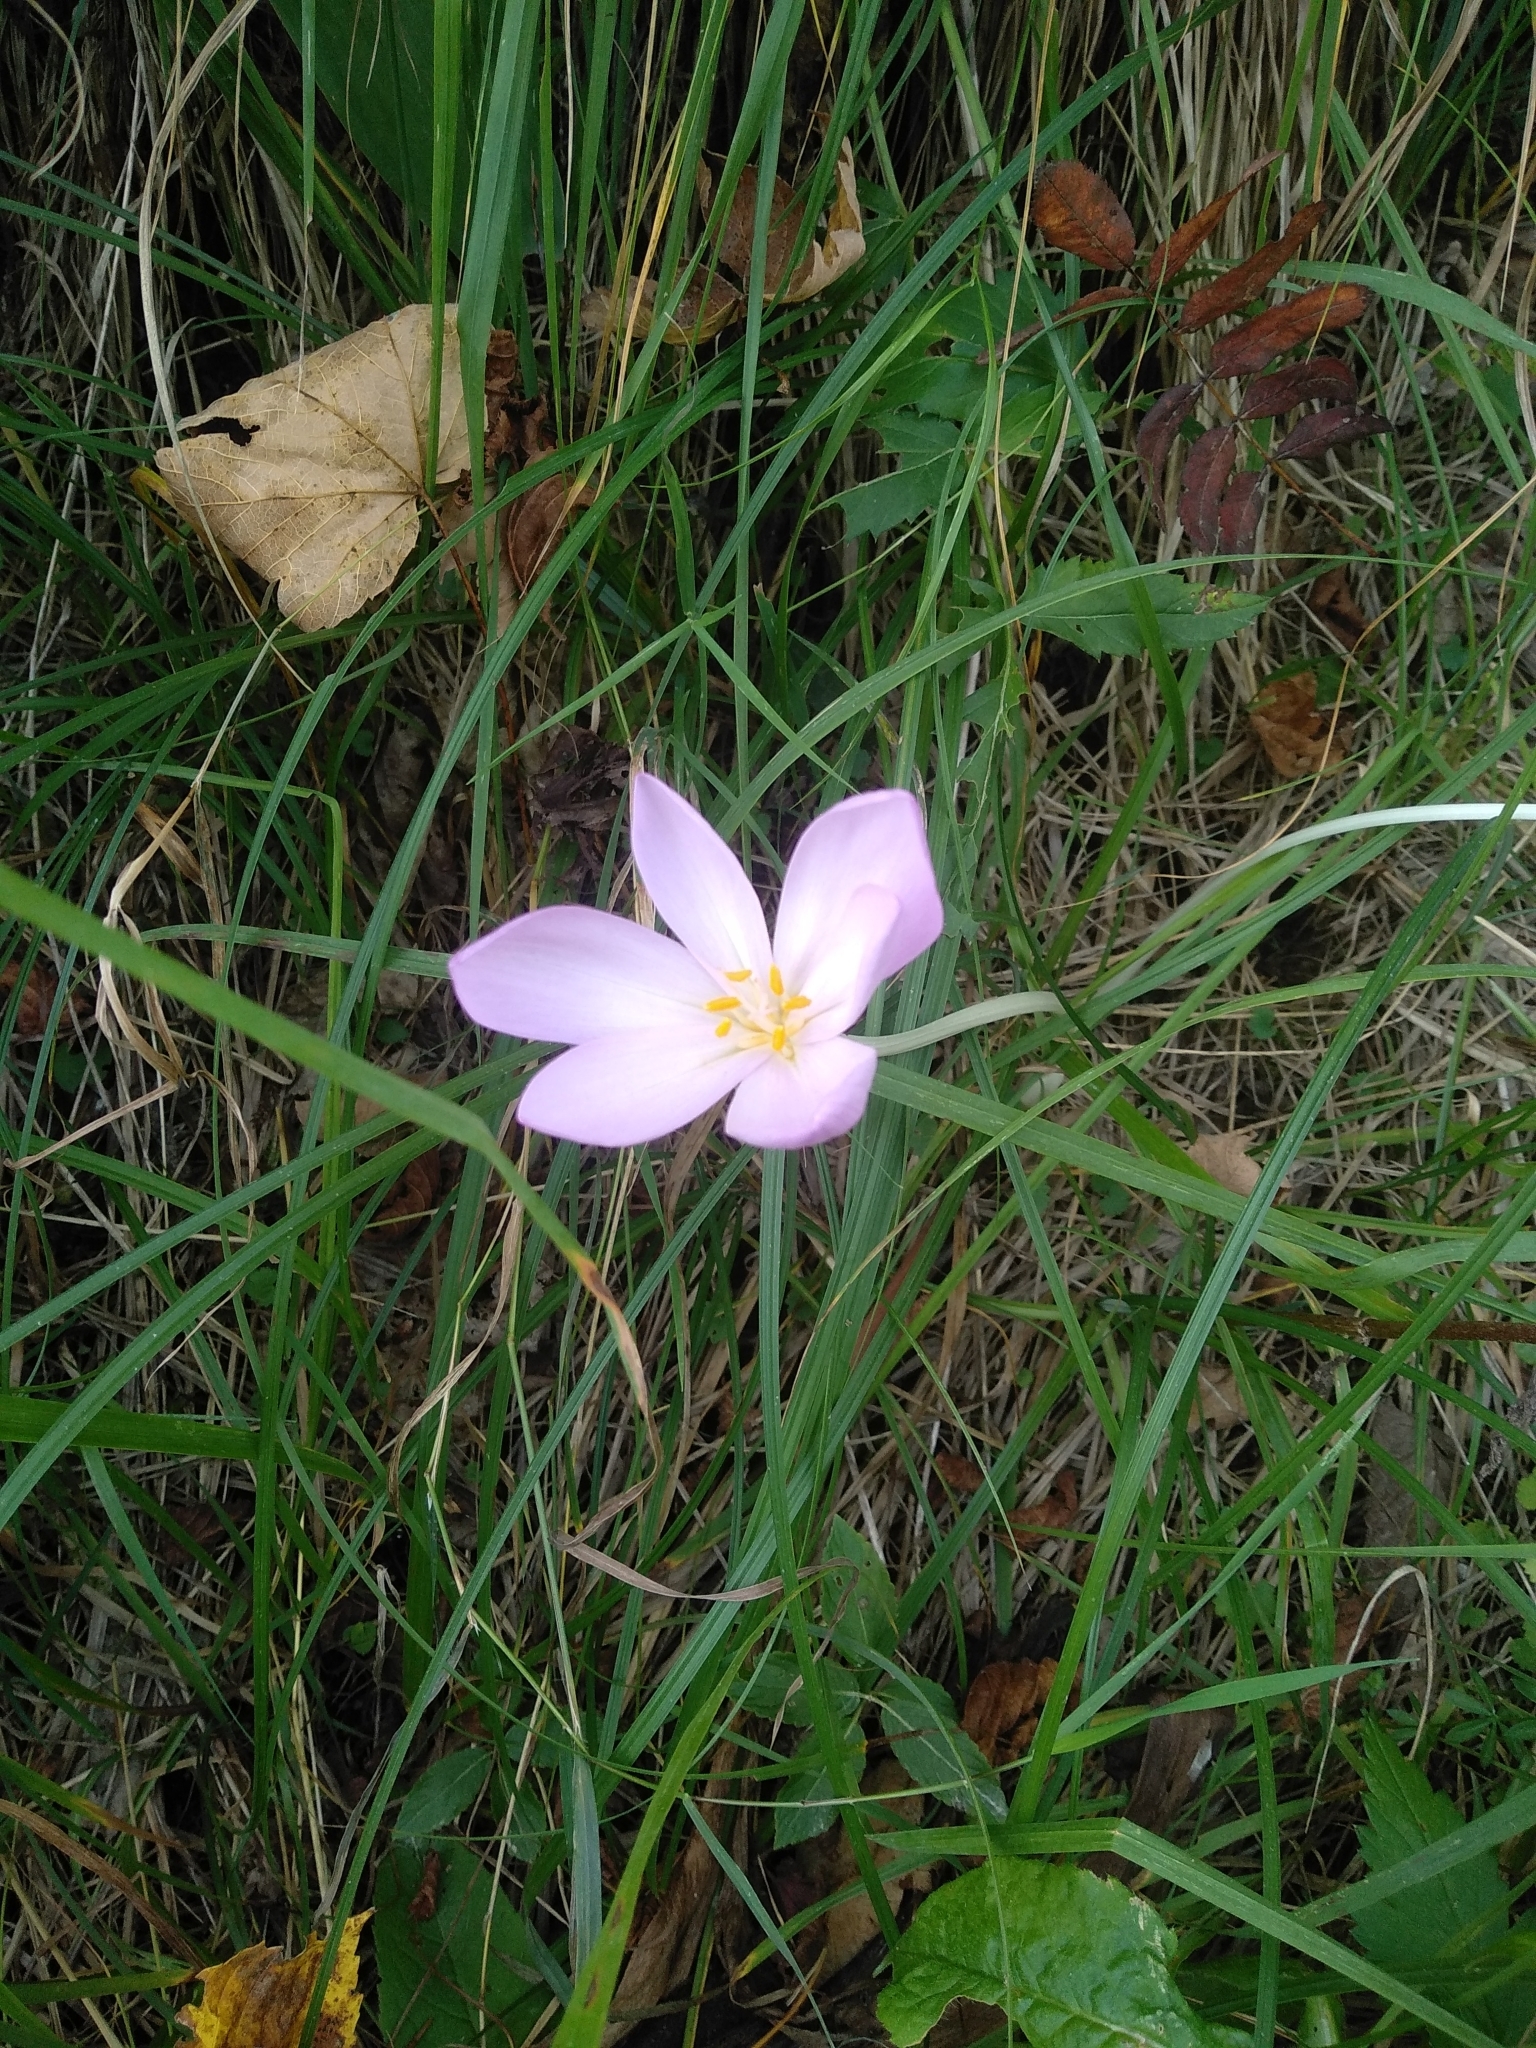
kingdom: Plantae
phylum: Tracheophyta
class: Liliopsida
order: Liliales
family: Colchicaceae
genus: Colchicum
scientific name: Colchicum autumnale
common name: Autumn crocus
